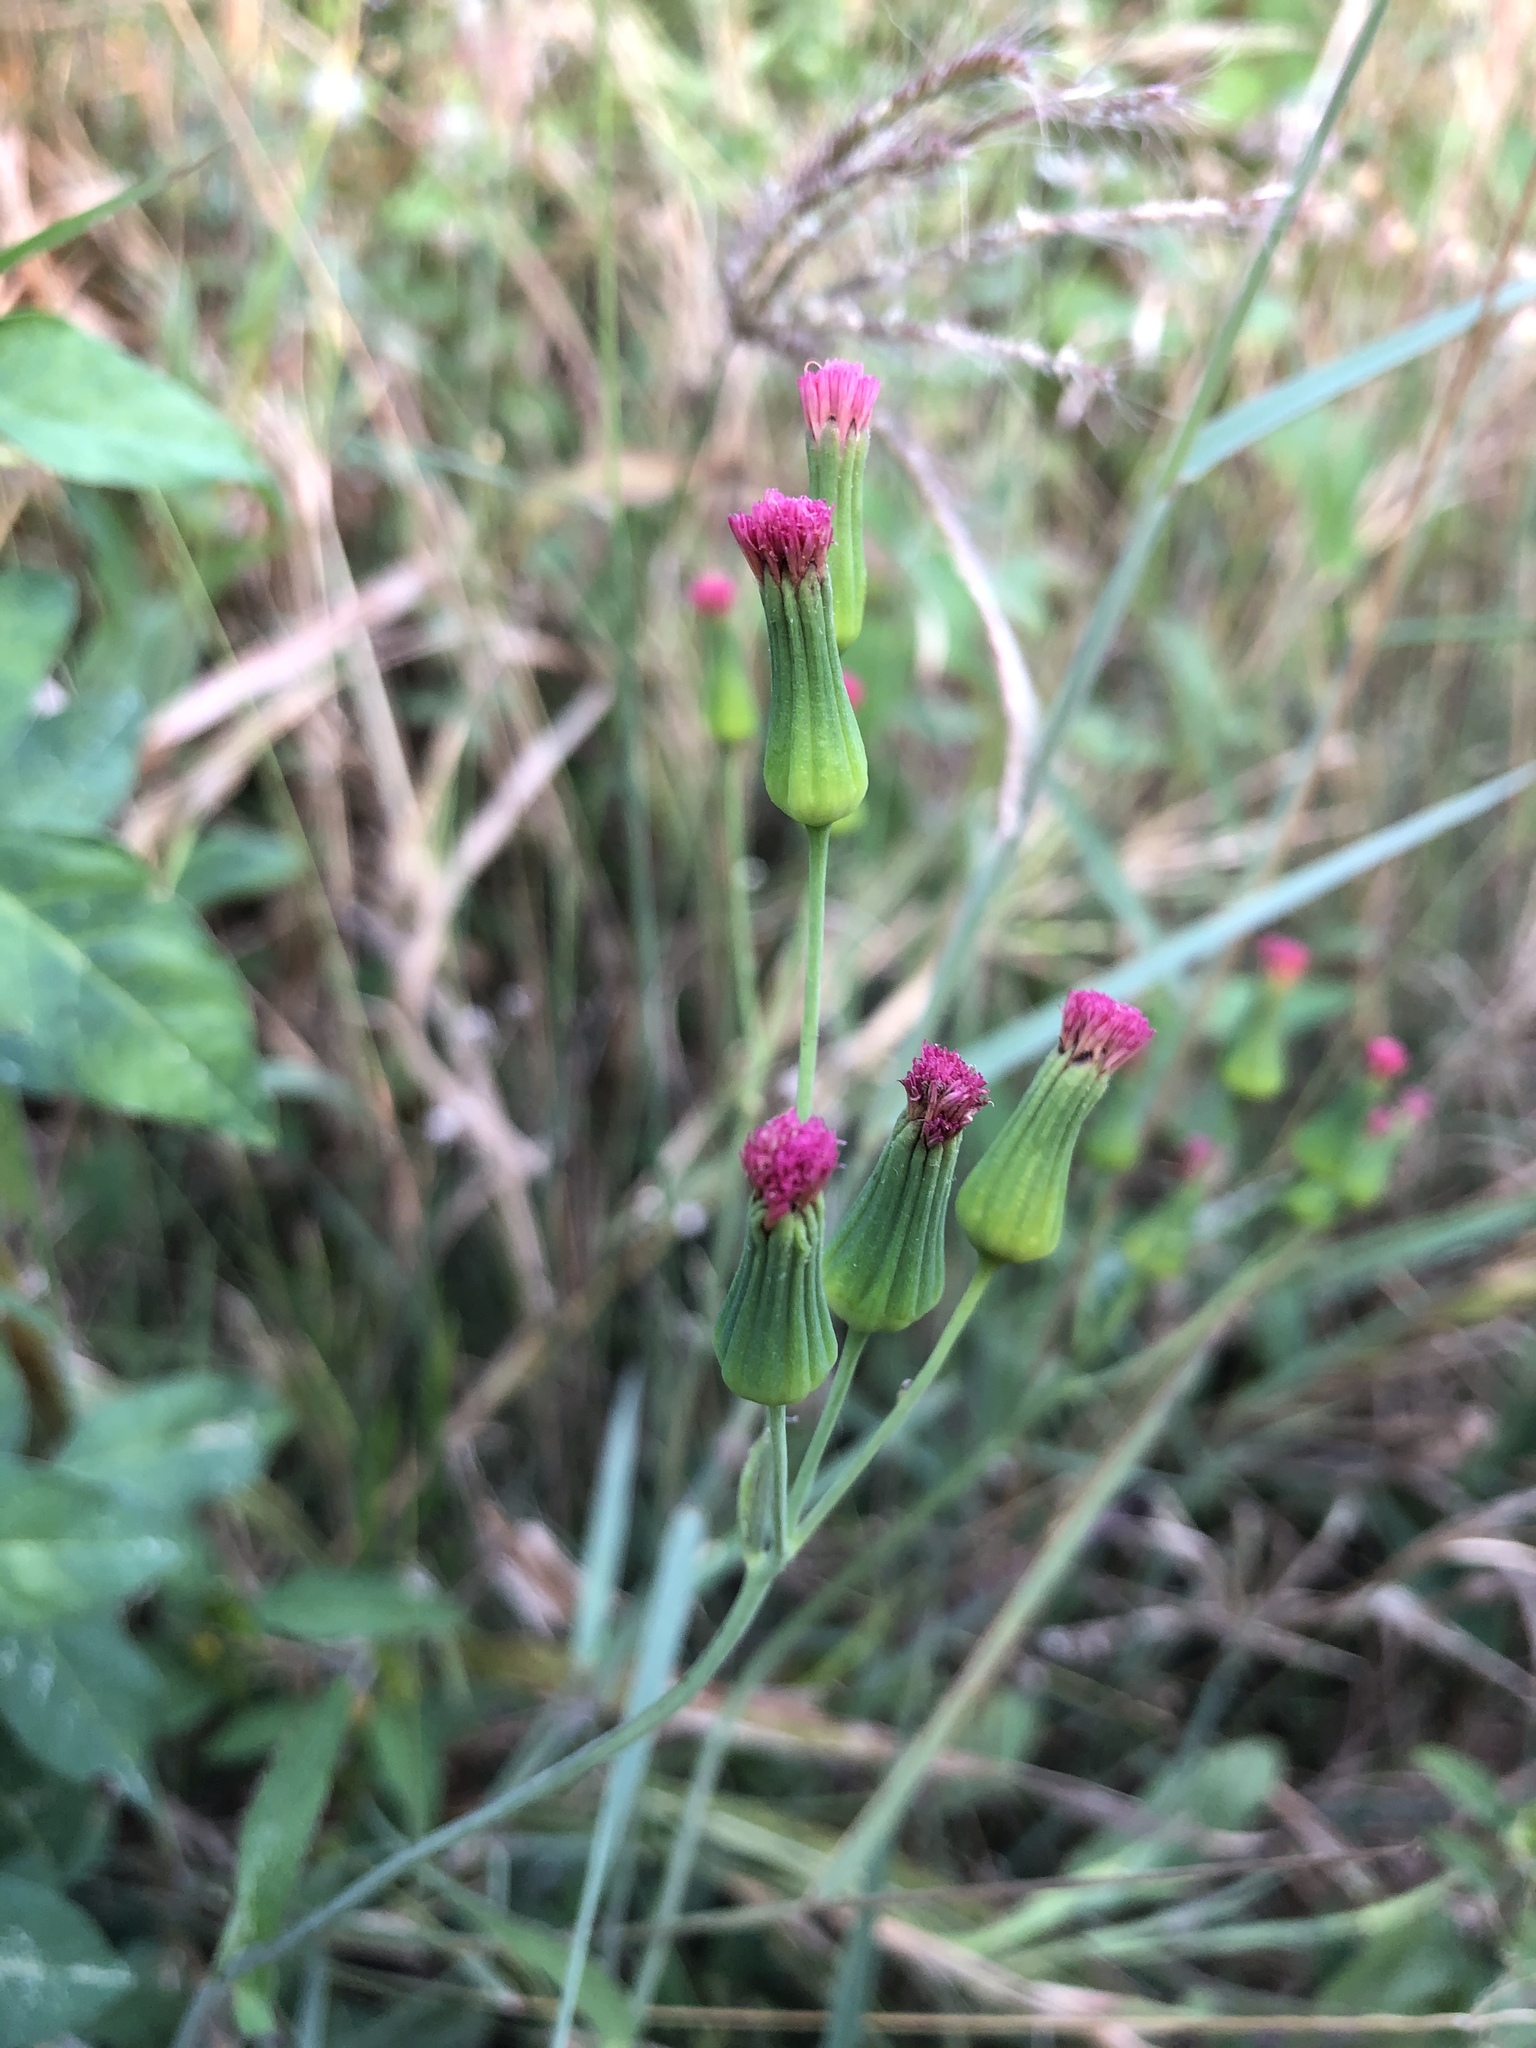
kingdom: Plantae
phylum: Tracheophyta
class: Magnoliopsida
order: Asterales
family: Asteraceae
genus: Emilia
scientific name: Emilia sonchifolia
